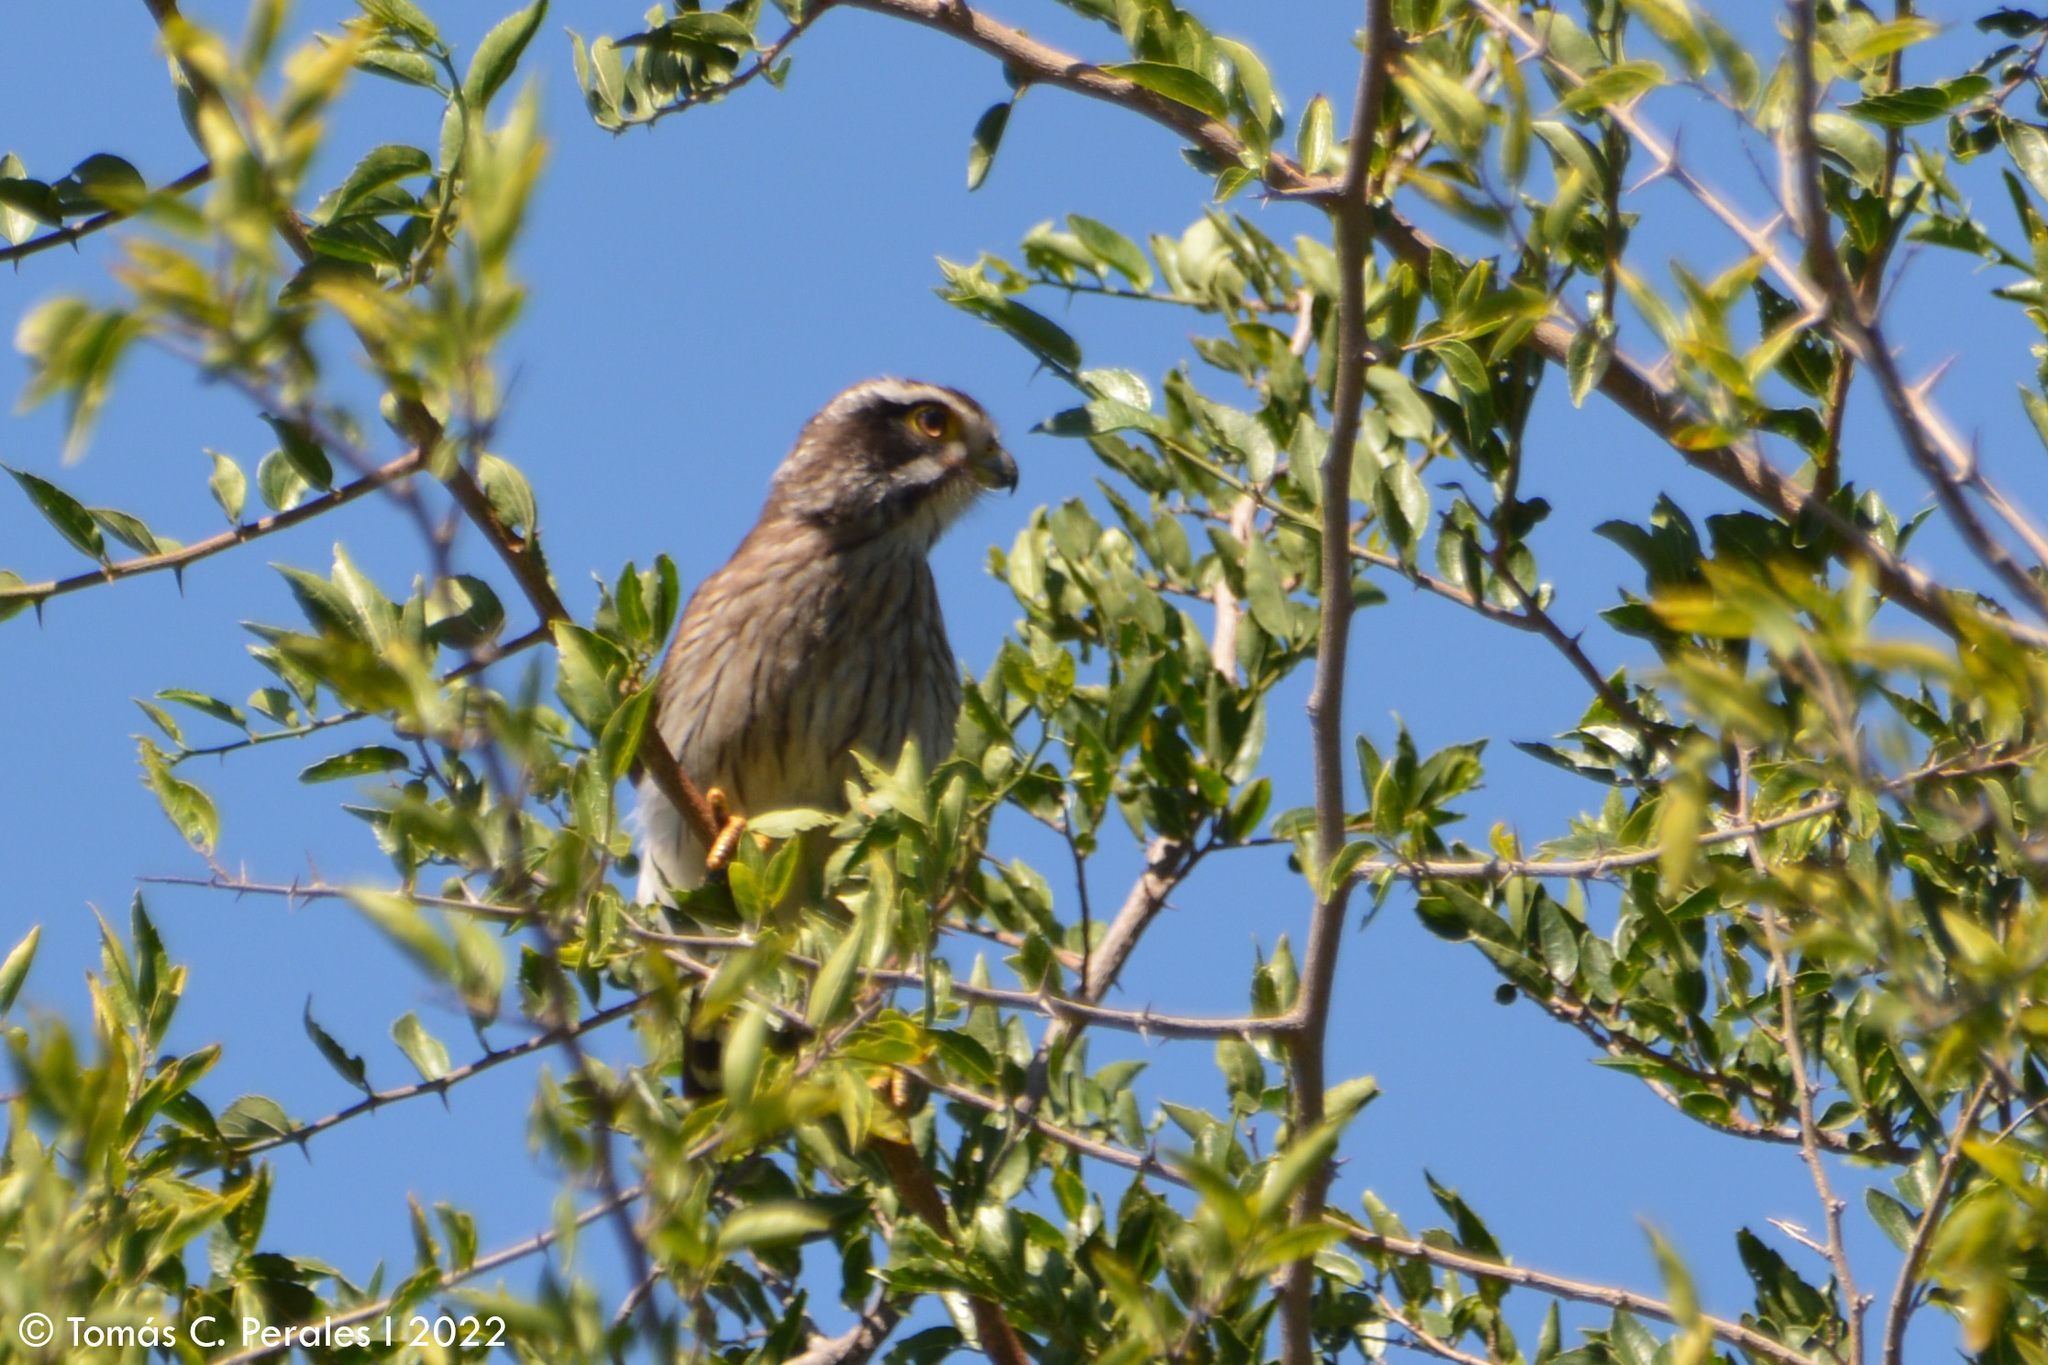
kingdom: Animalia
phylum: Chordata
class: Aves
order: Falconiformes
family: Falconidae
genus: Spiziapteryx
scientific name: Spiziapteryx circumcincta
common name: Spot-winged falconet
